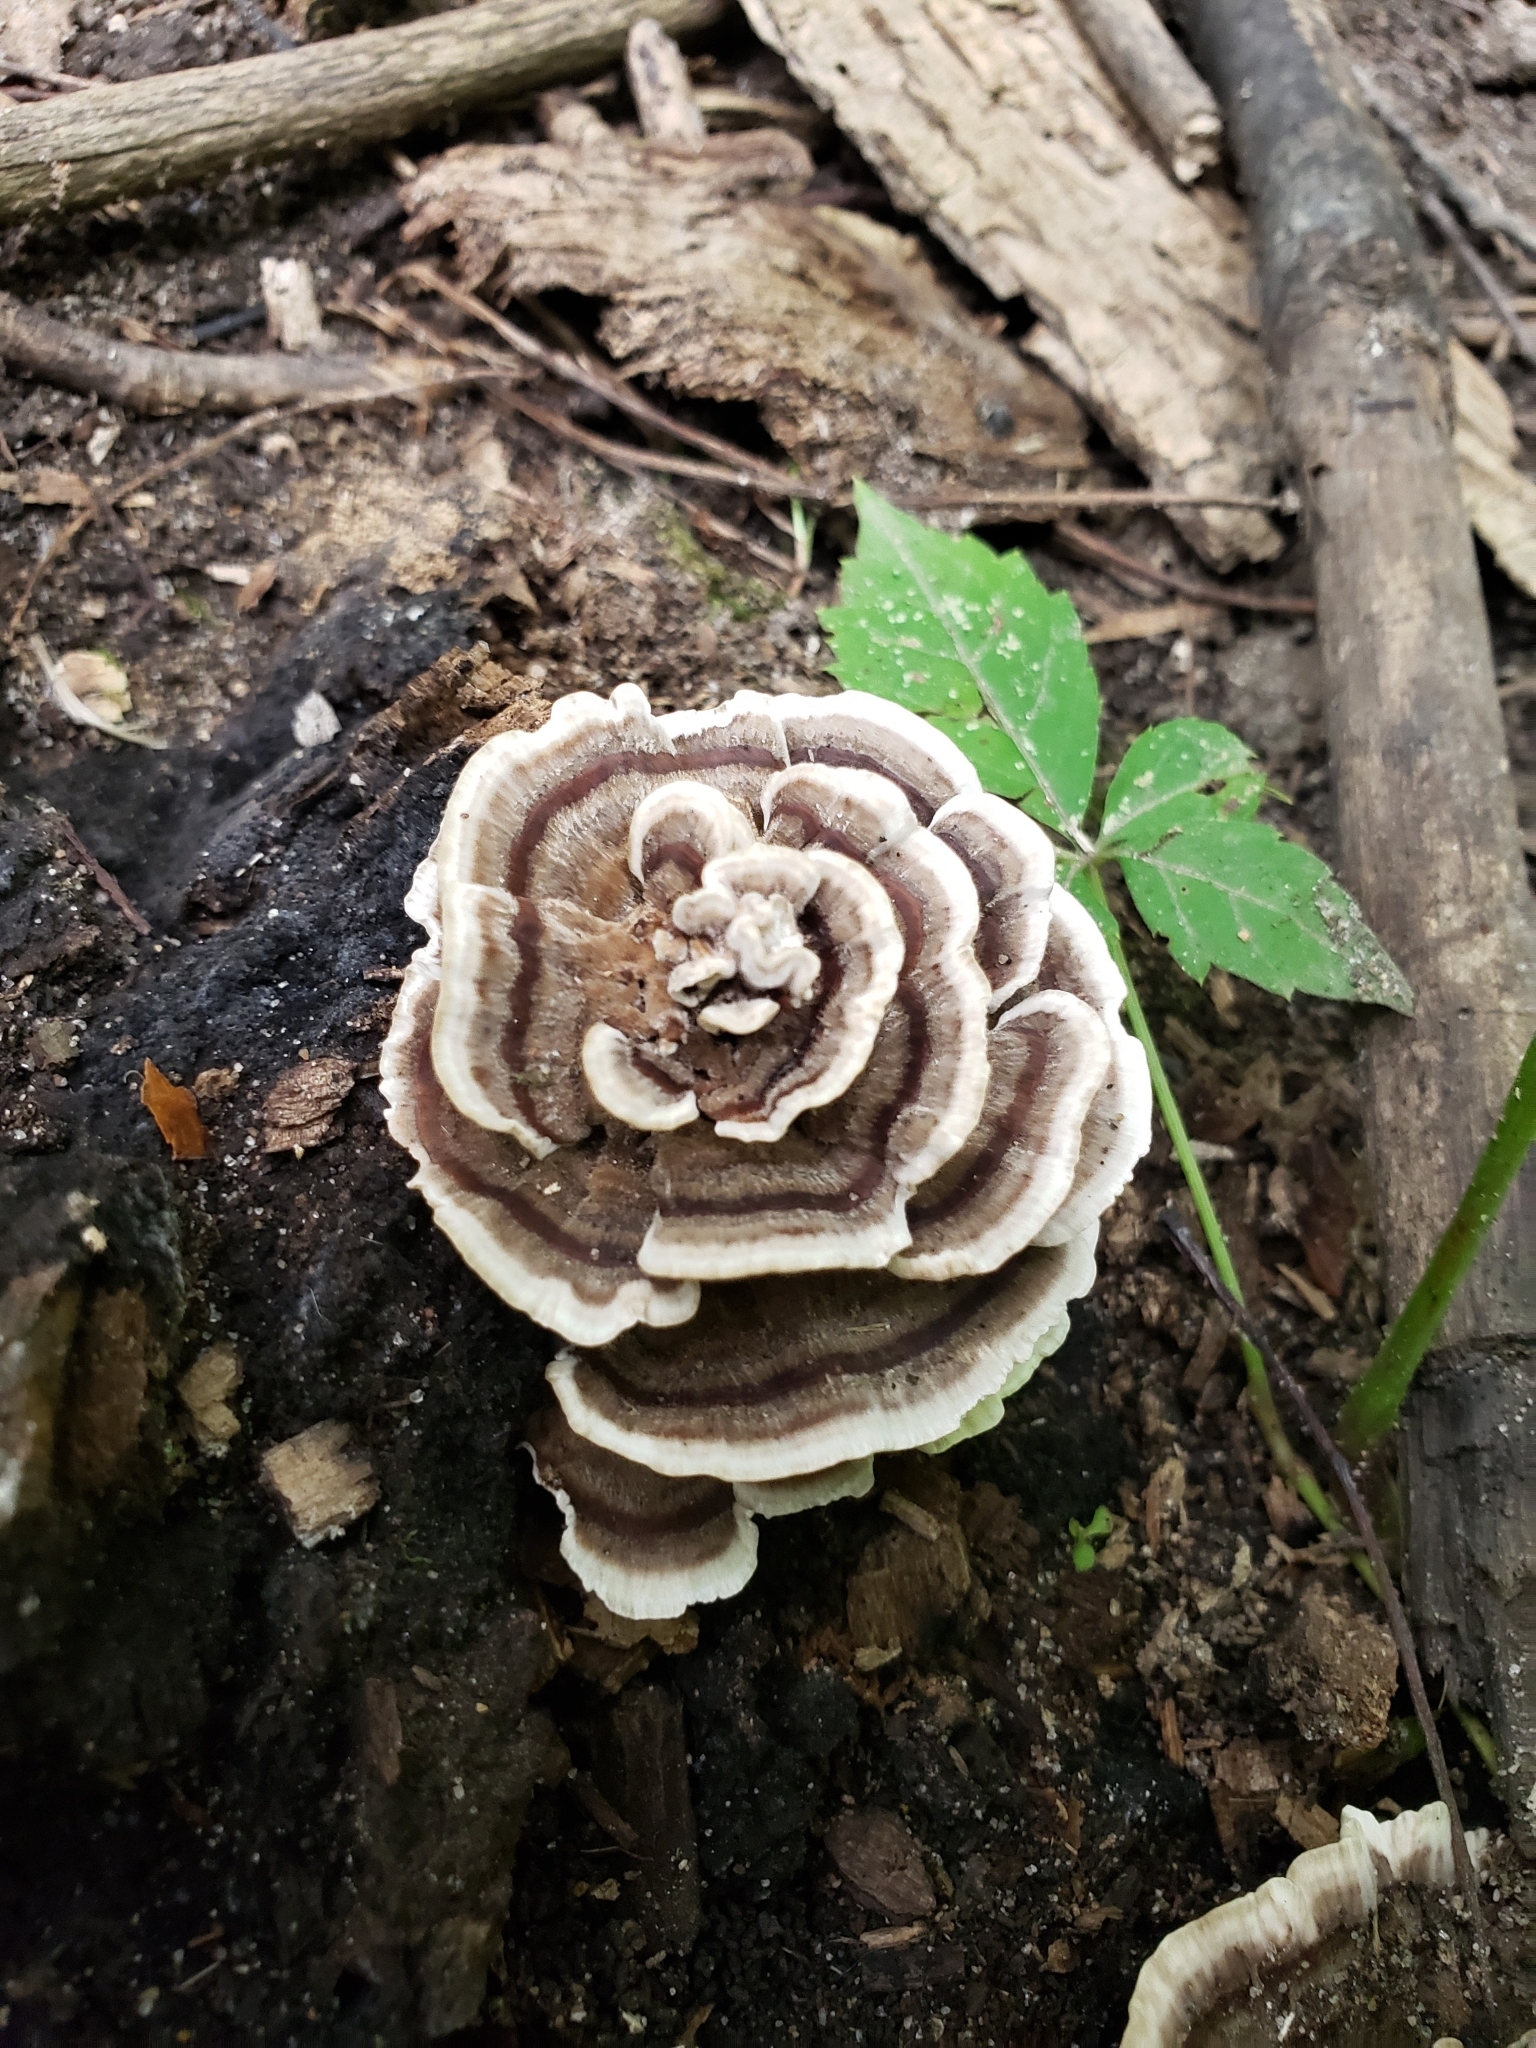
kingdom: Fungi
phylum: Basidiomycota
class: Agaricomycetes
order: Polyporales
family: Polyporaceae
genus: Trametes
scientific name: Trametes versicolor
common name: Turkeytail
